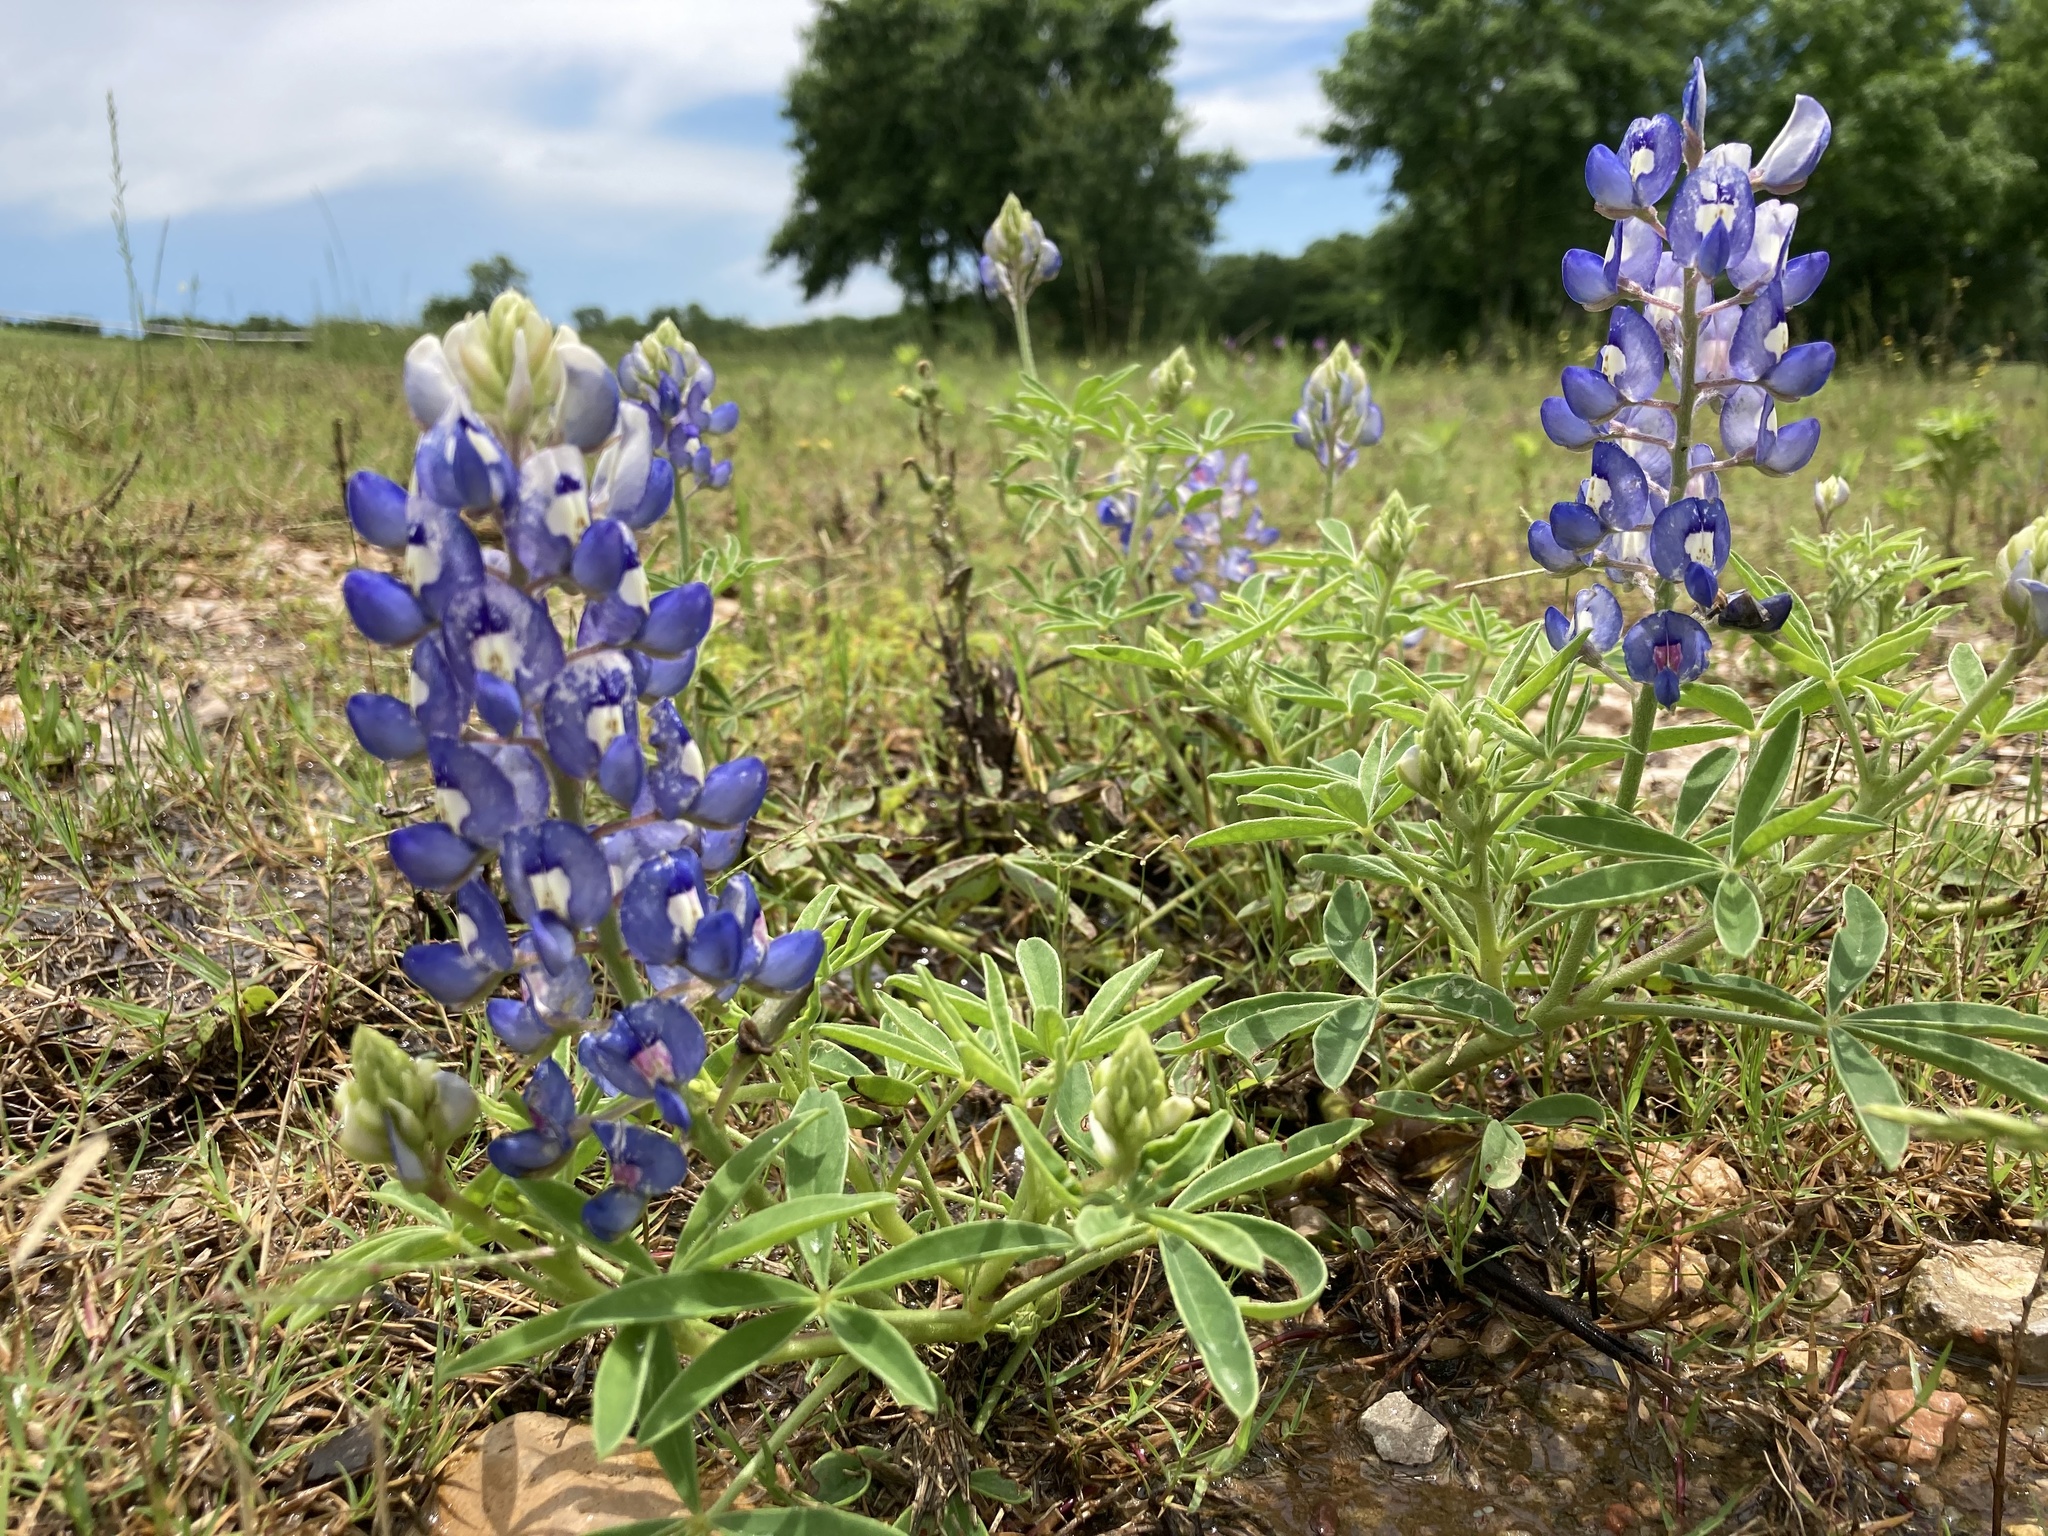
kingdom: Plantae
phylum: Tracheophyta
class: Magnoliopsida
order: Fabales
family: Fabaceae
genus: Lupinus
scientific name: Lupinus texensis
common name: Texas bluebonnet
